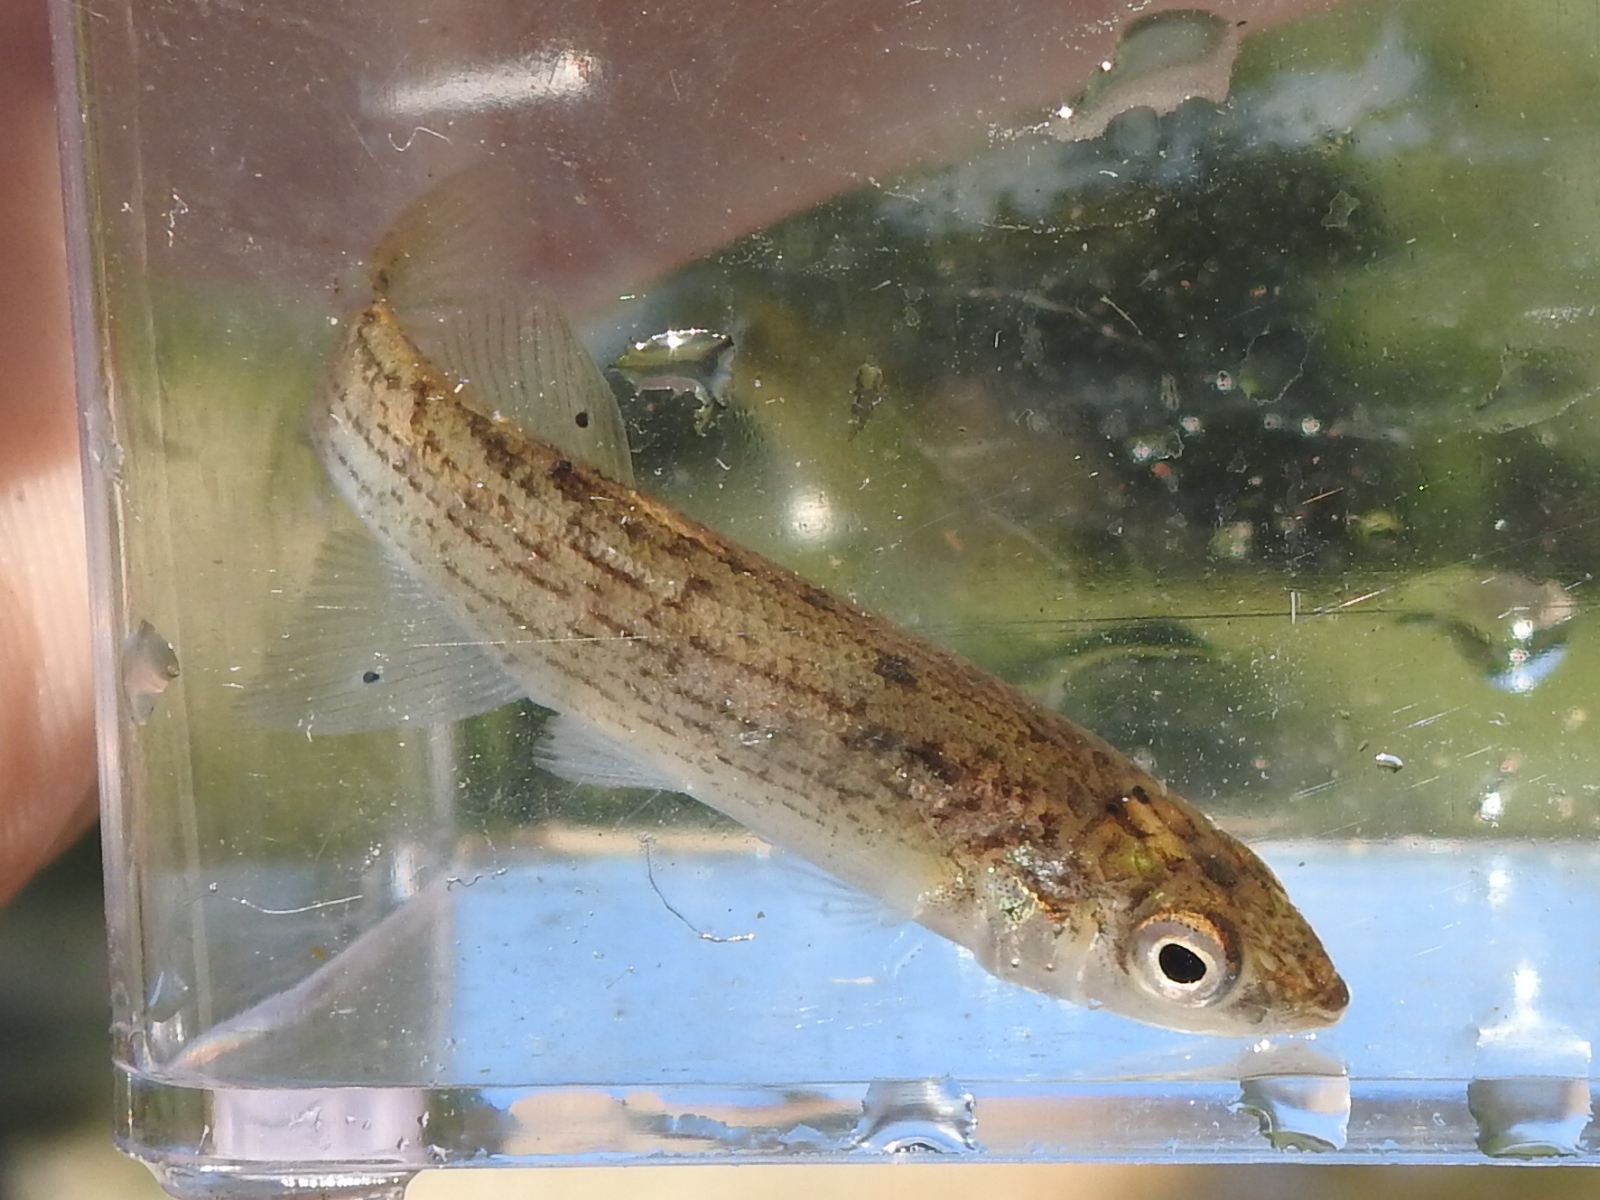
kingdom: Animalia
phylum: Chordata
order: Cyprinodontiformes
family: Fundulidae
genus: Fundulus
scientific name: Fundulus catenatus
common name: Northern studfish
